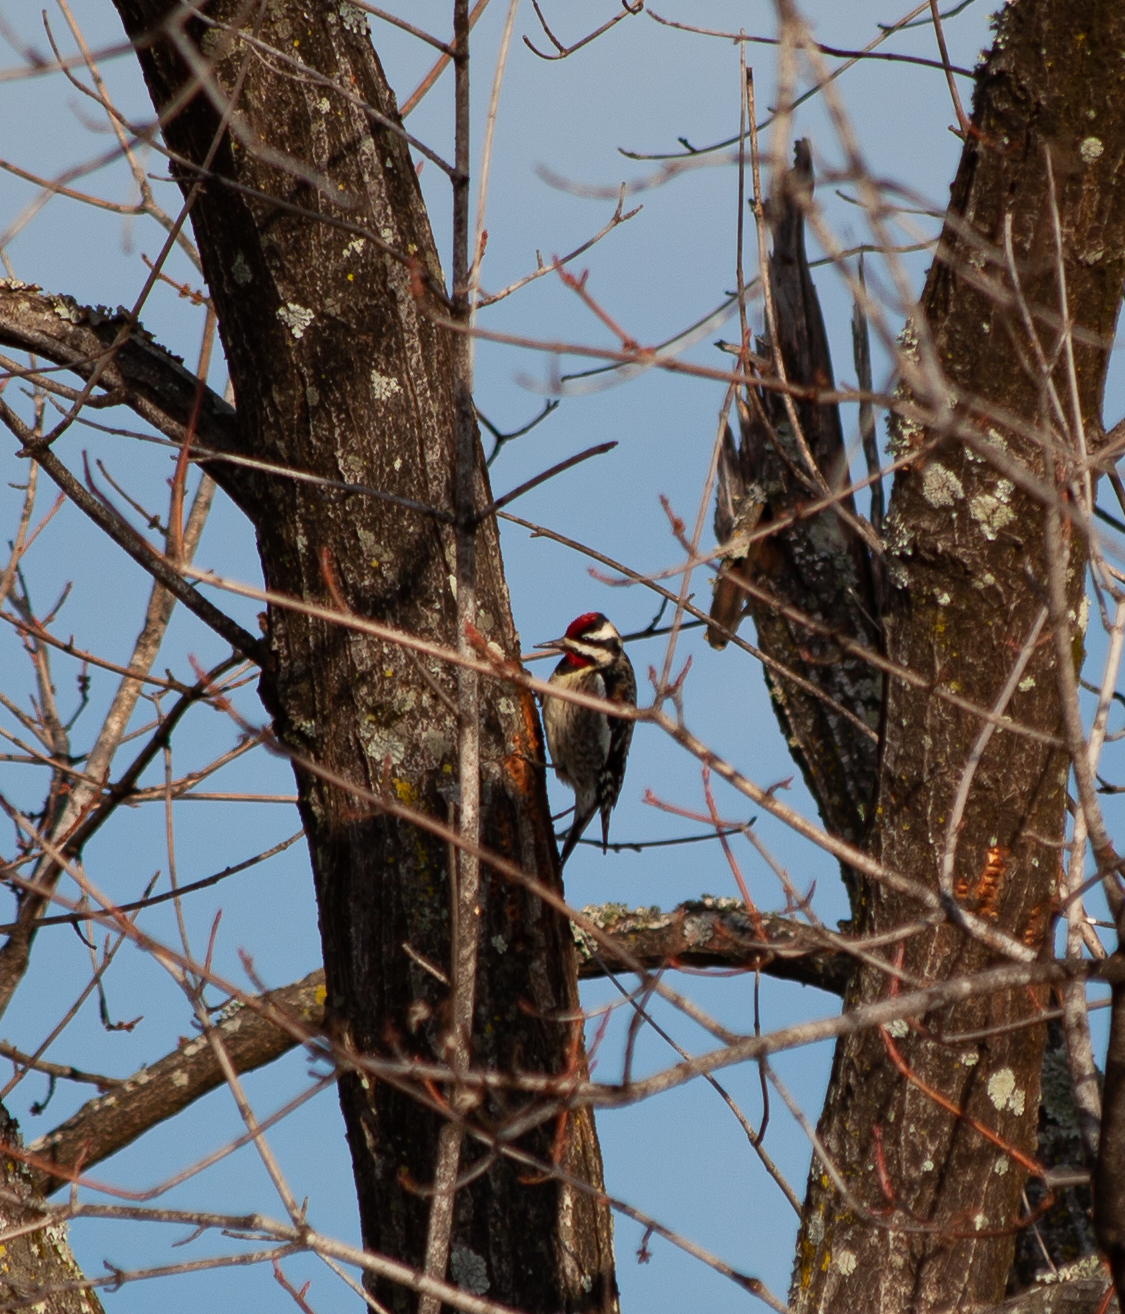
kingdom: Animalia
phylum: Chordata
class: Aves
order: Piciformes
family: Picidae
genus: Sphyrapicus
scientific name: Sphyrapicus varius
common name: Yellow-bellied sapsucker
